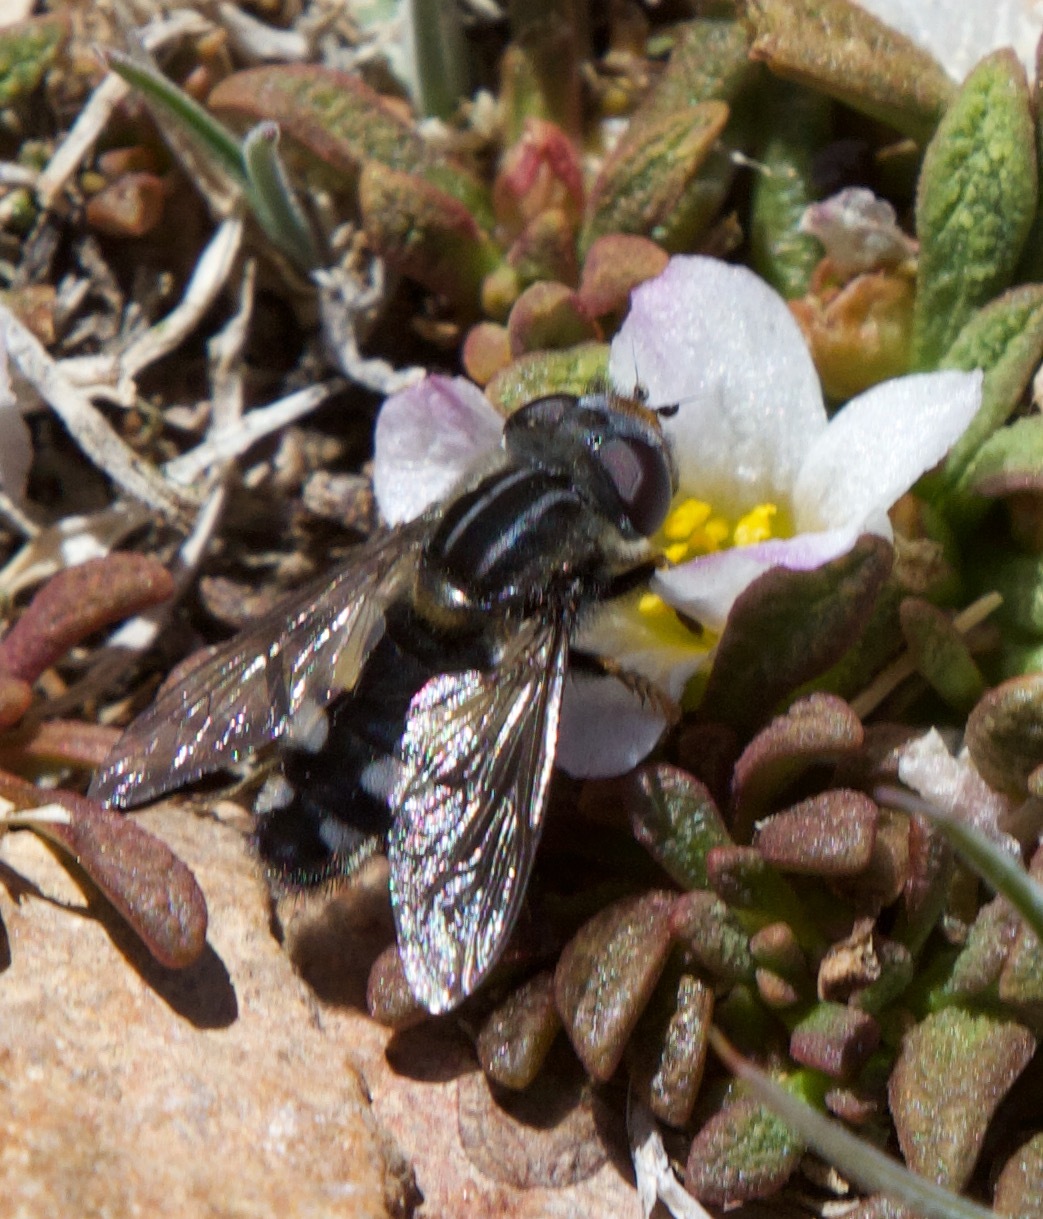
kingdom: Animalia
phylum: Arthropoda
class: Insecta
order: Diptera
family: Syrphidae
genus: Dolichogyna
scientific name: Dolichogyna nigripes
